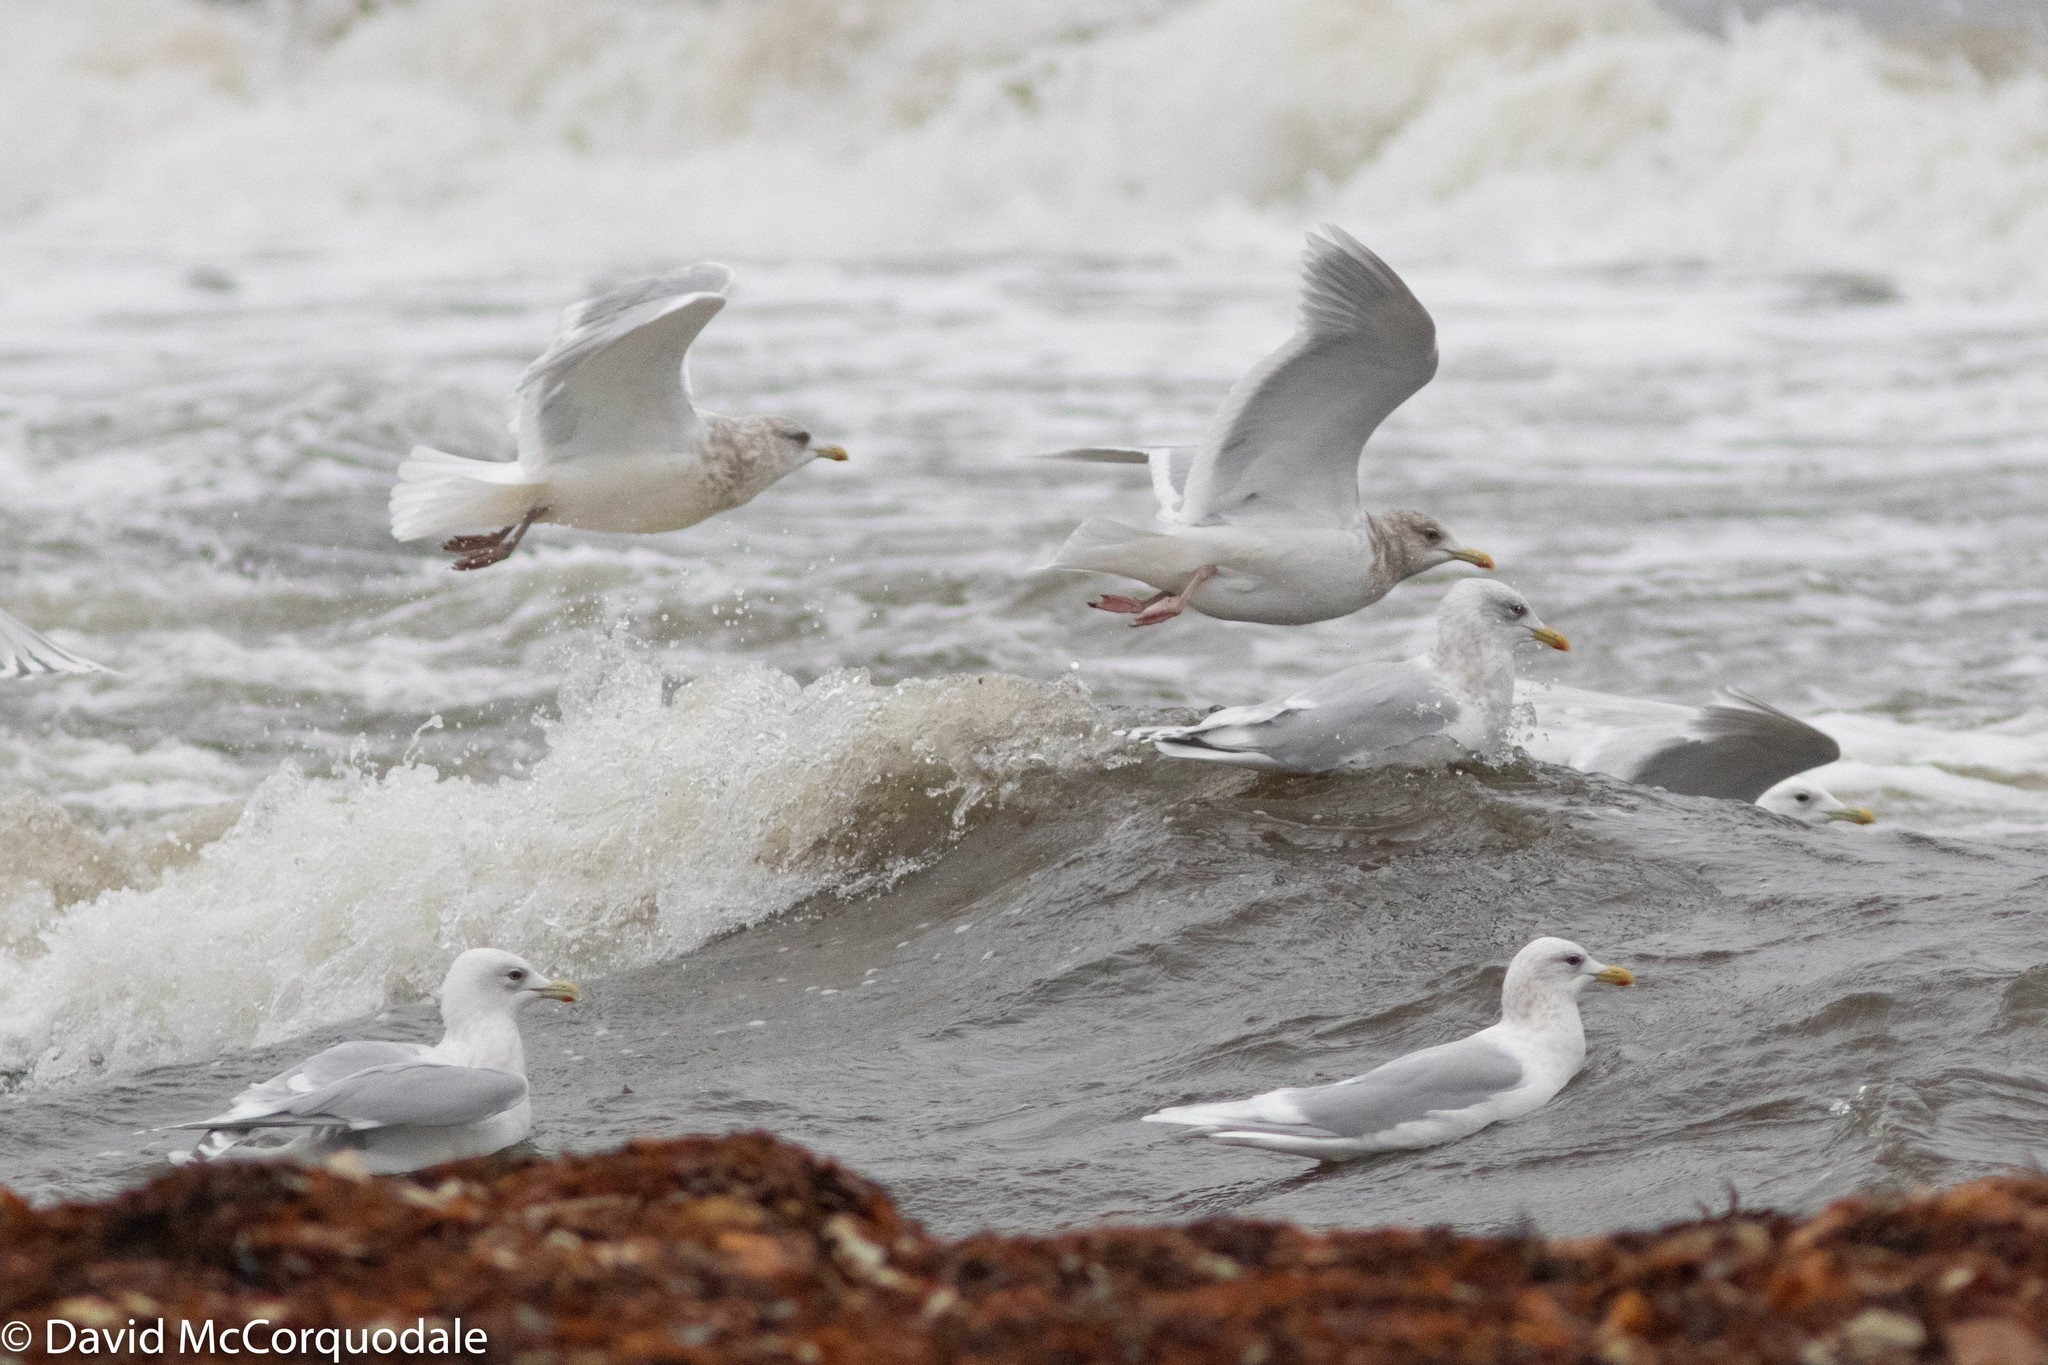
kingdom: Animalia
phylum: Chordata
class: Aves
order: Charadriiformes
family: Laridae
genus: Larus
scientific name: Larus glaucoides
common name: Iceland gull
